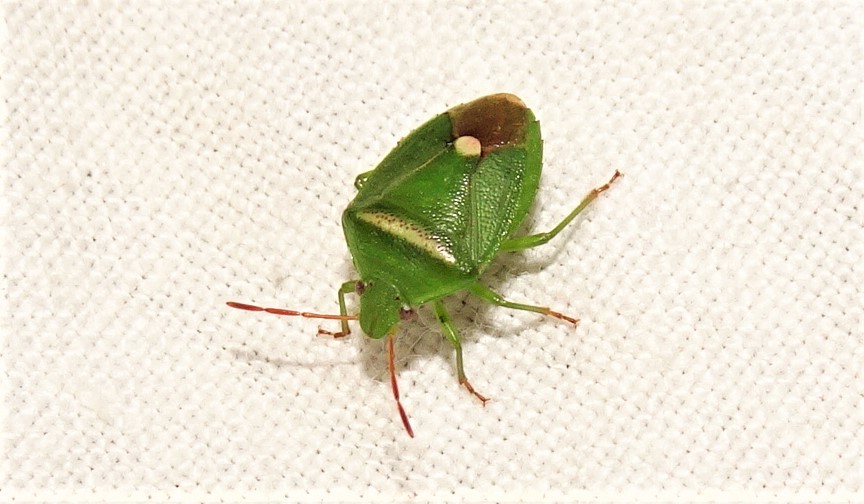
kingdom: Animalia
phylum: Arthropoda
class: Insecta
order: Hemiptera
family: Pentatomidae
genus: Ocirrhoe
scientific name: Ocirrhoe
